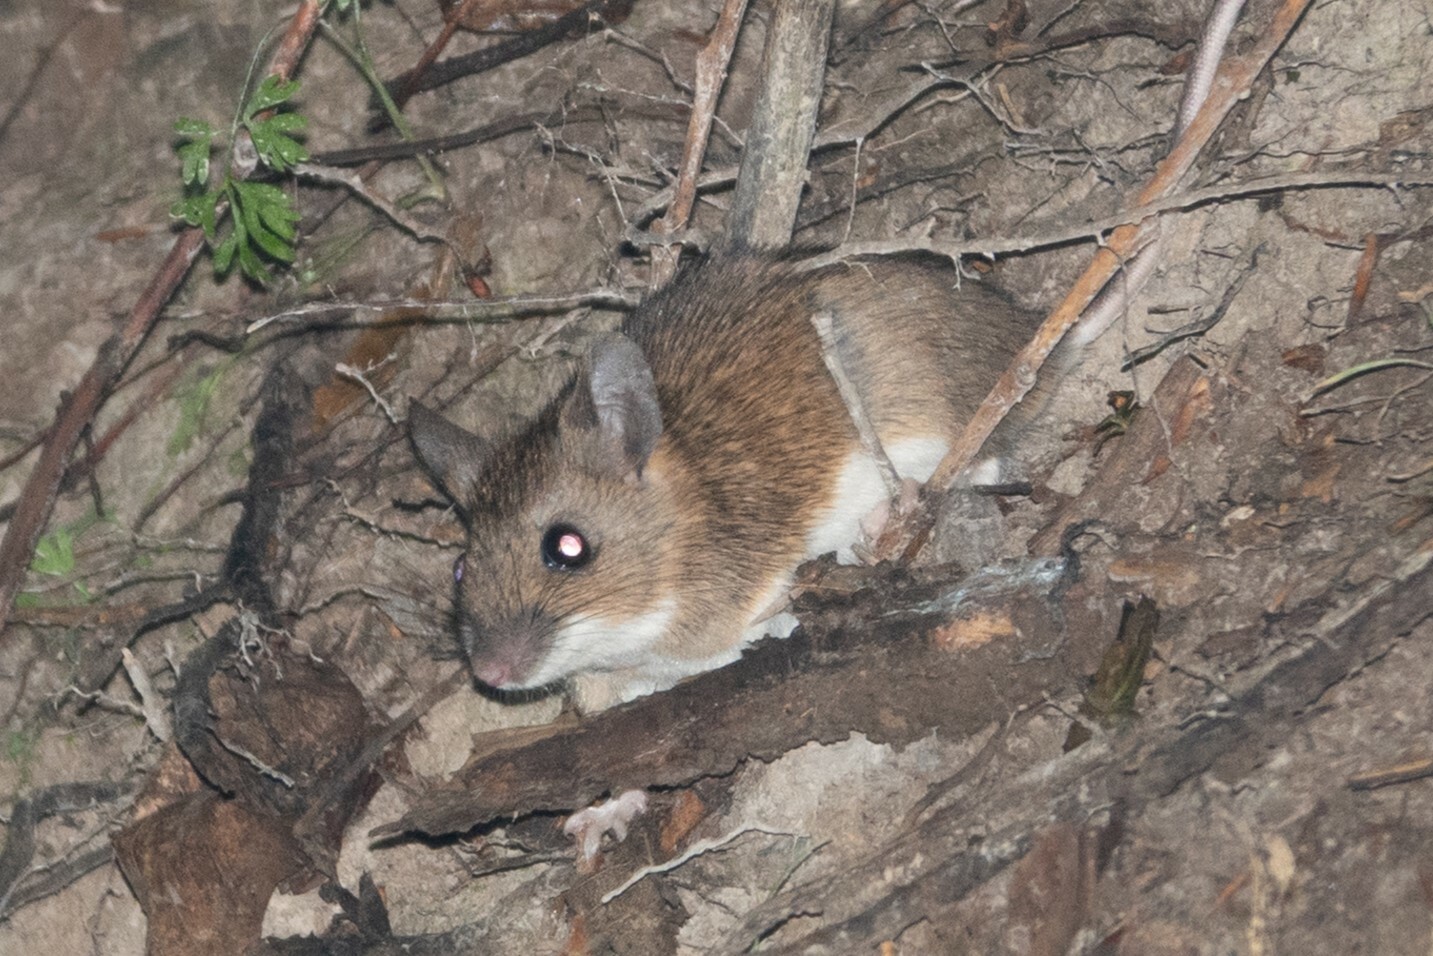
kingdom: Animalia
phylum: Chordata
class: Mammalia
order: Rodentia
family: Muridae
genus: Apodemus
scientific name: Apodemus flavicollis
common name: Yellow-necked field mouse
